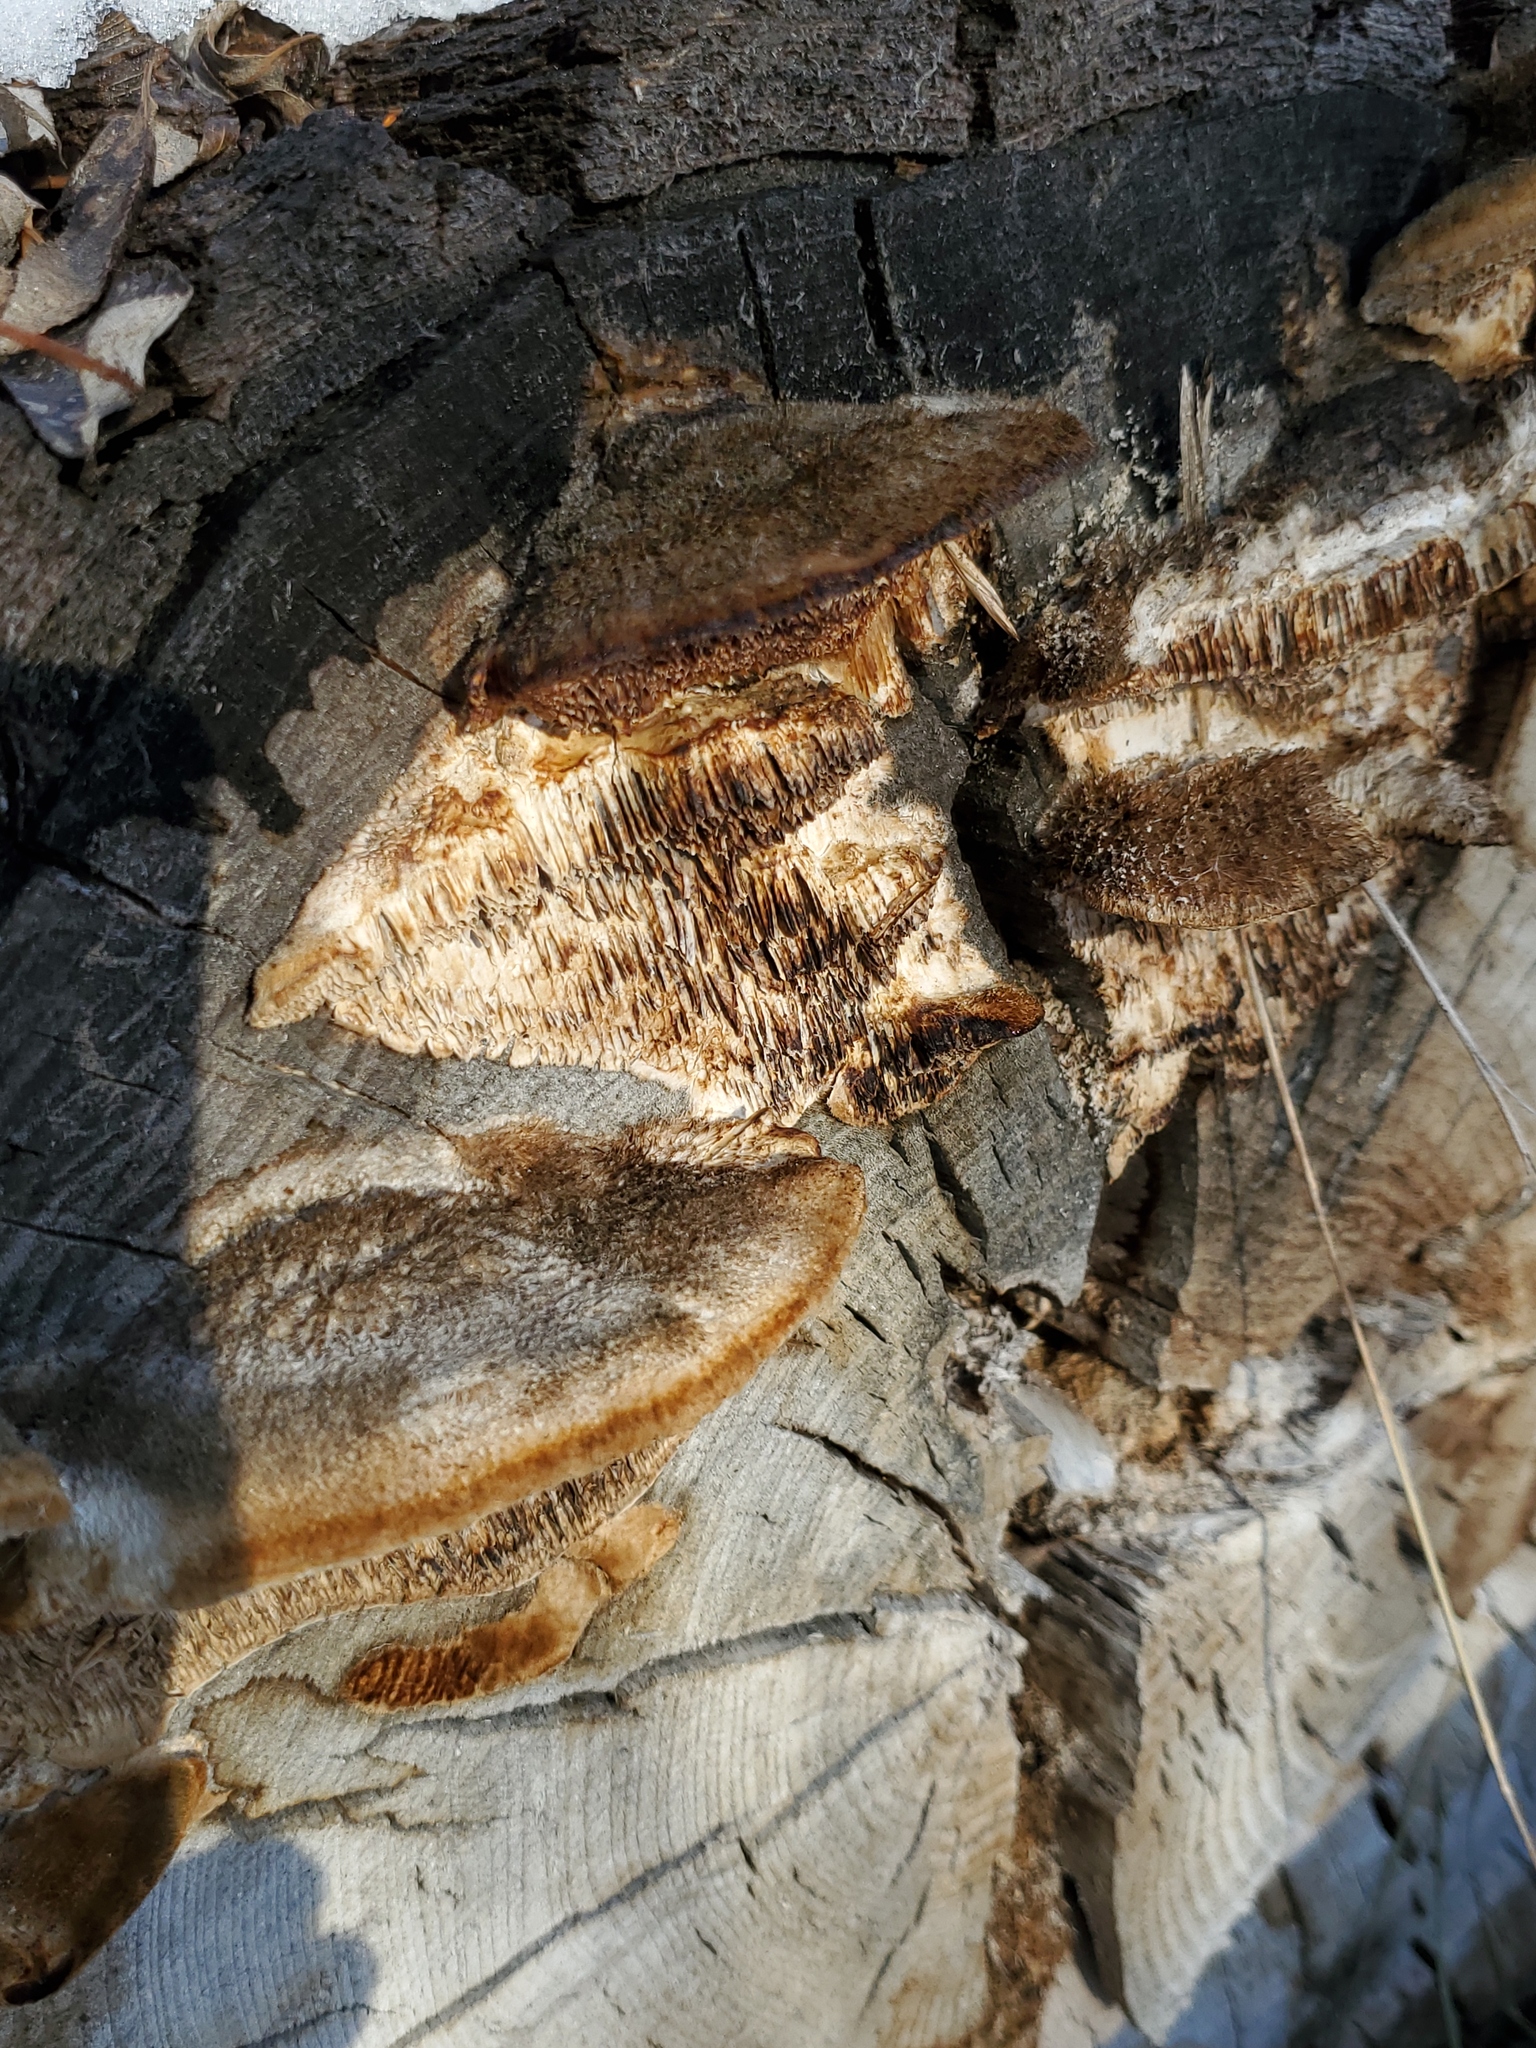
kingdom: Fungi
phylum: Basidiomycota
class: Agaricomycetes
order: Polyporales
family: Polyporaceae
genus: Coriolopsis
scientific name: Coriolopsis gallica
